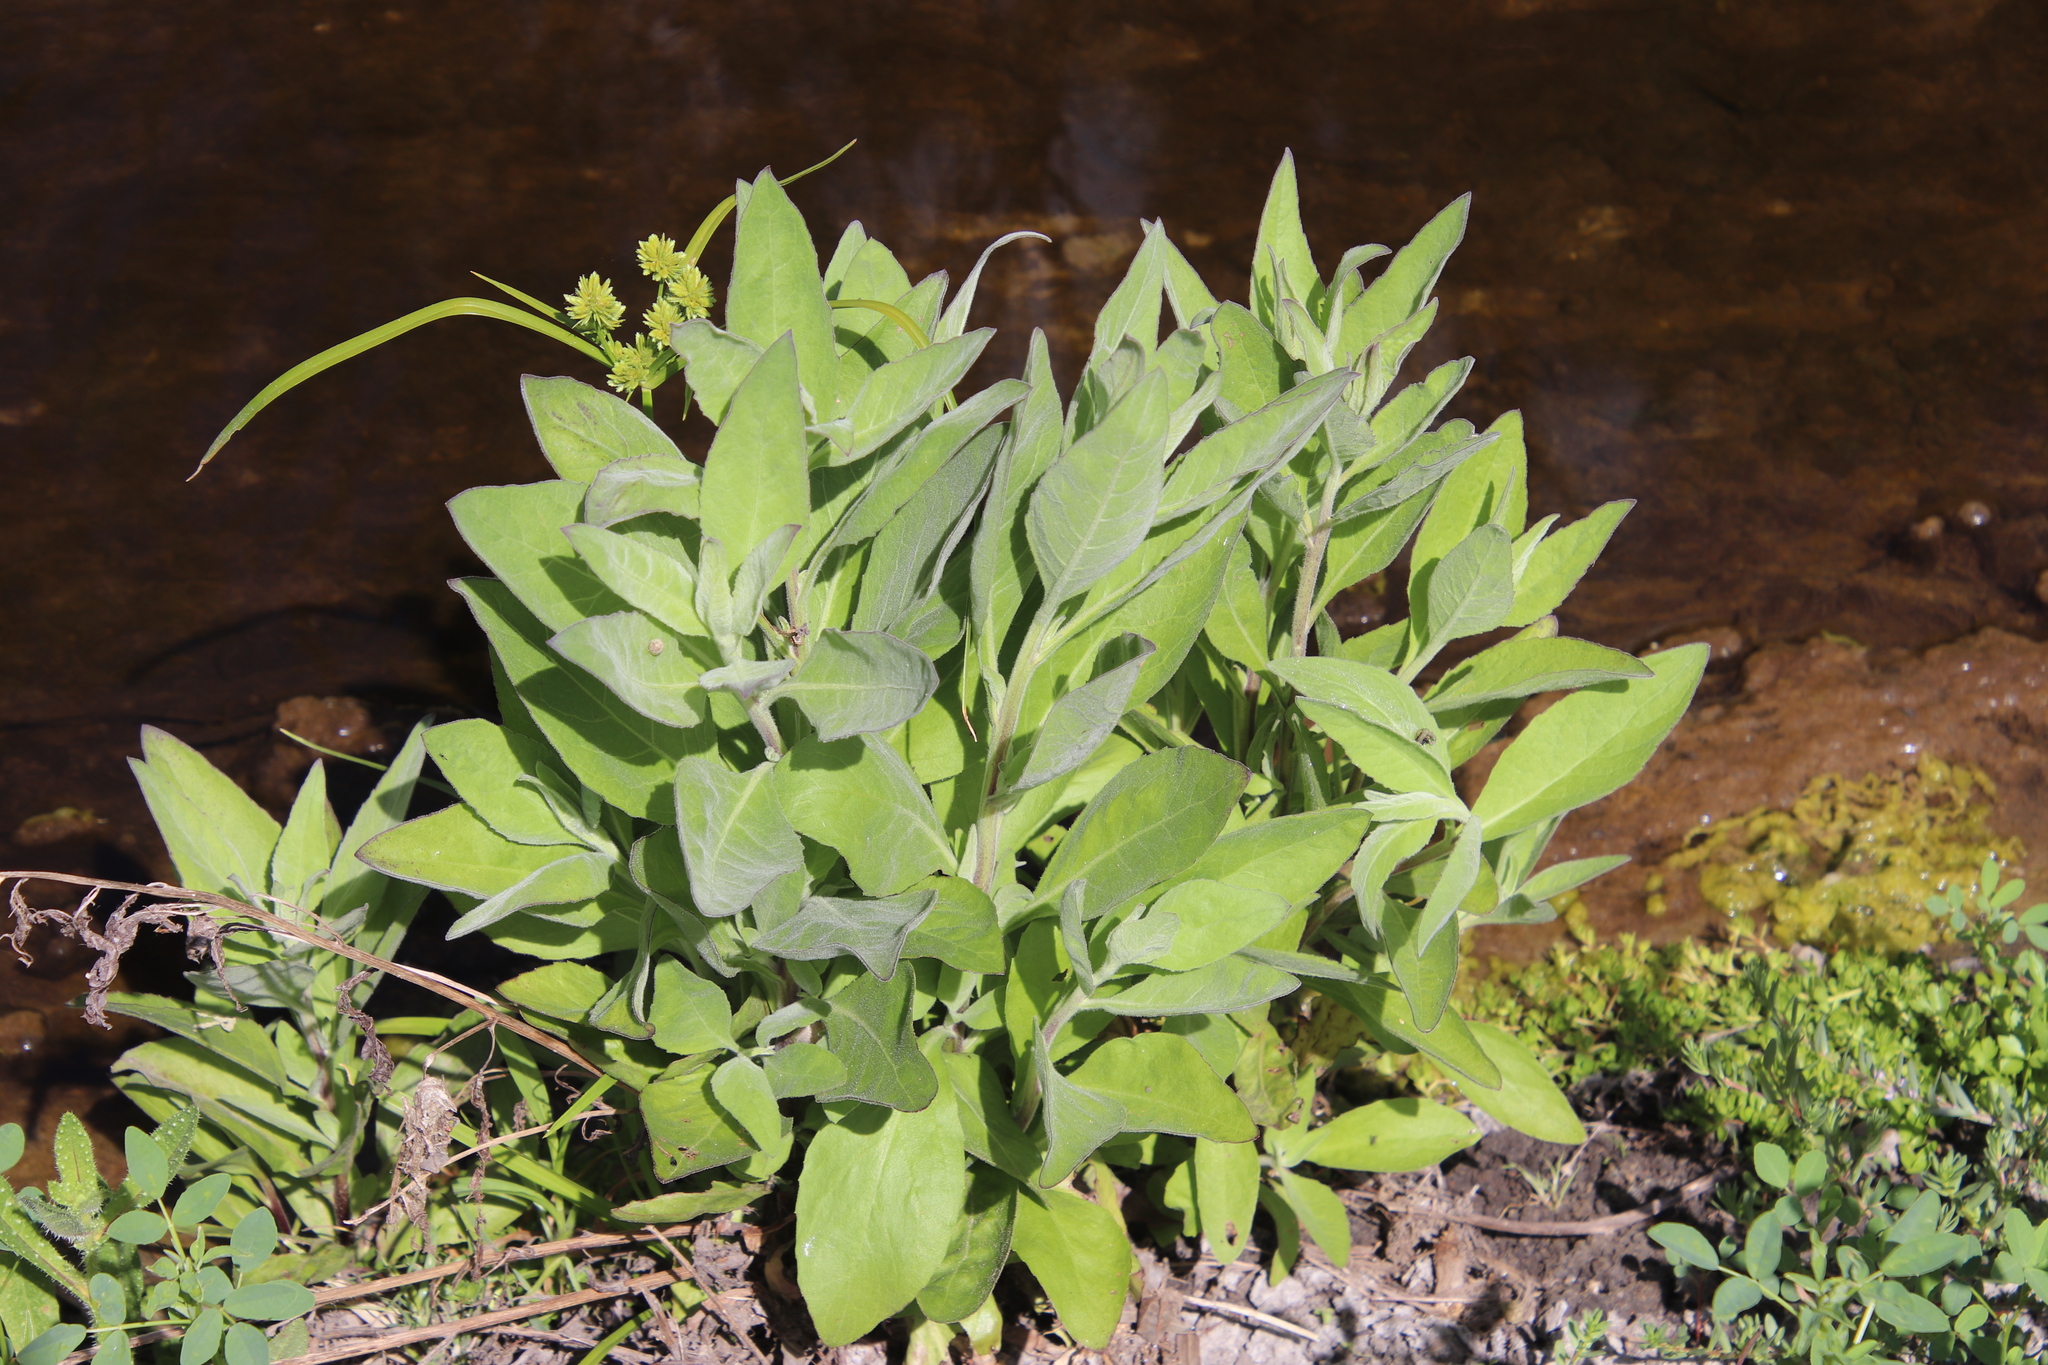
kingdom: Plantae
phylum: Tracheophyta
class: Magnoliopsida
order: Asterales
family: Asteraceae
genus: Pluchea
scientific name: Pluchea odorata
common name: Saltmarsh fleabane
